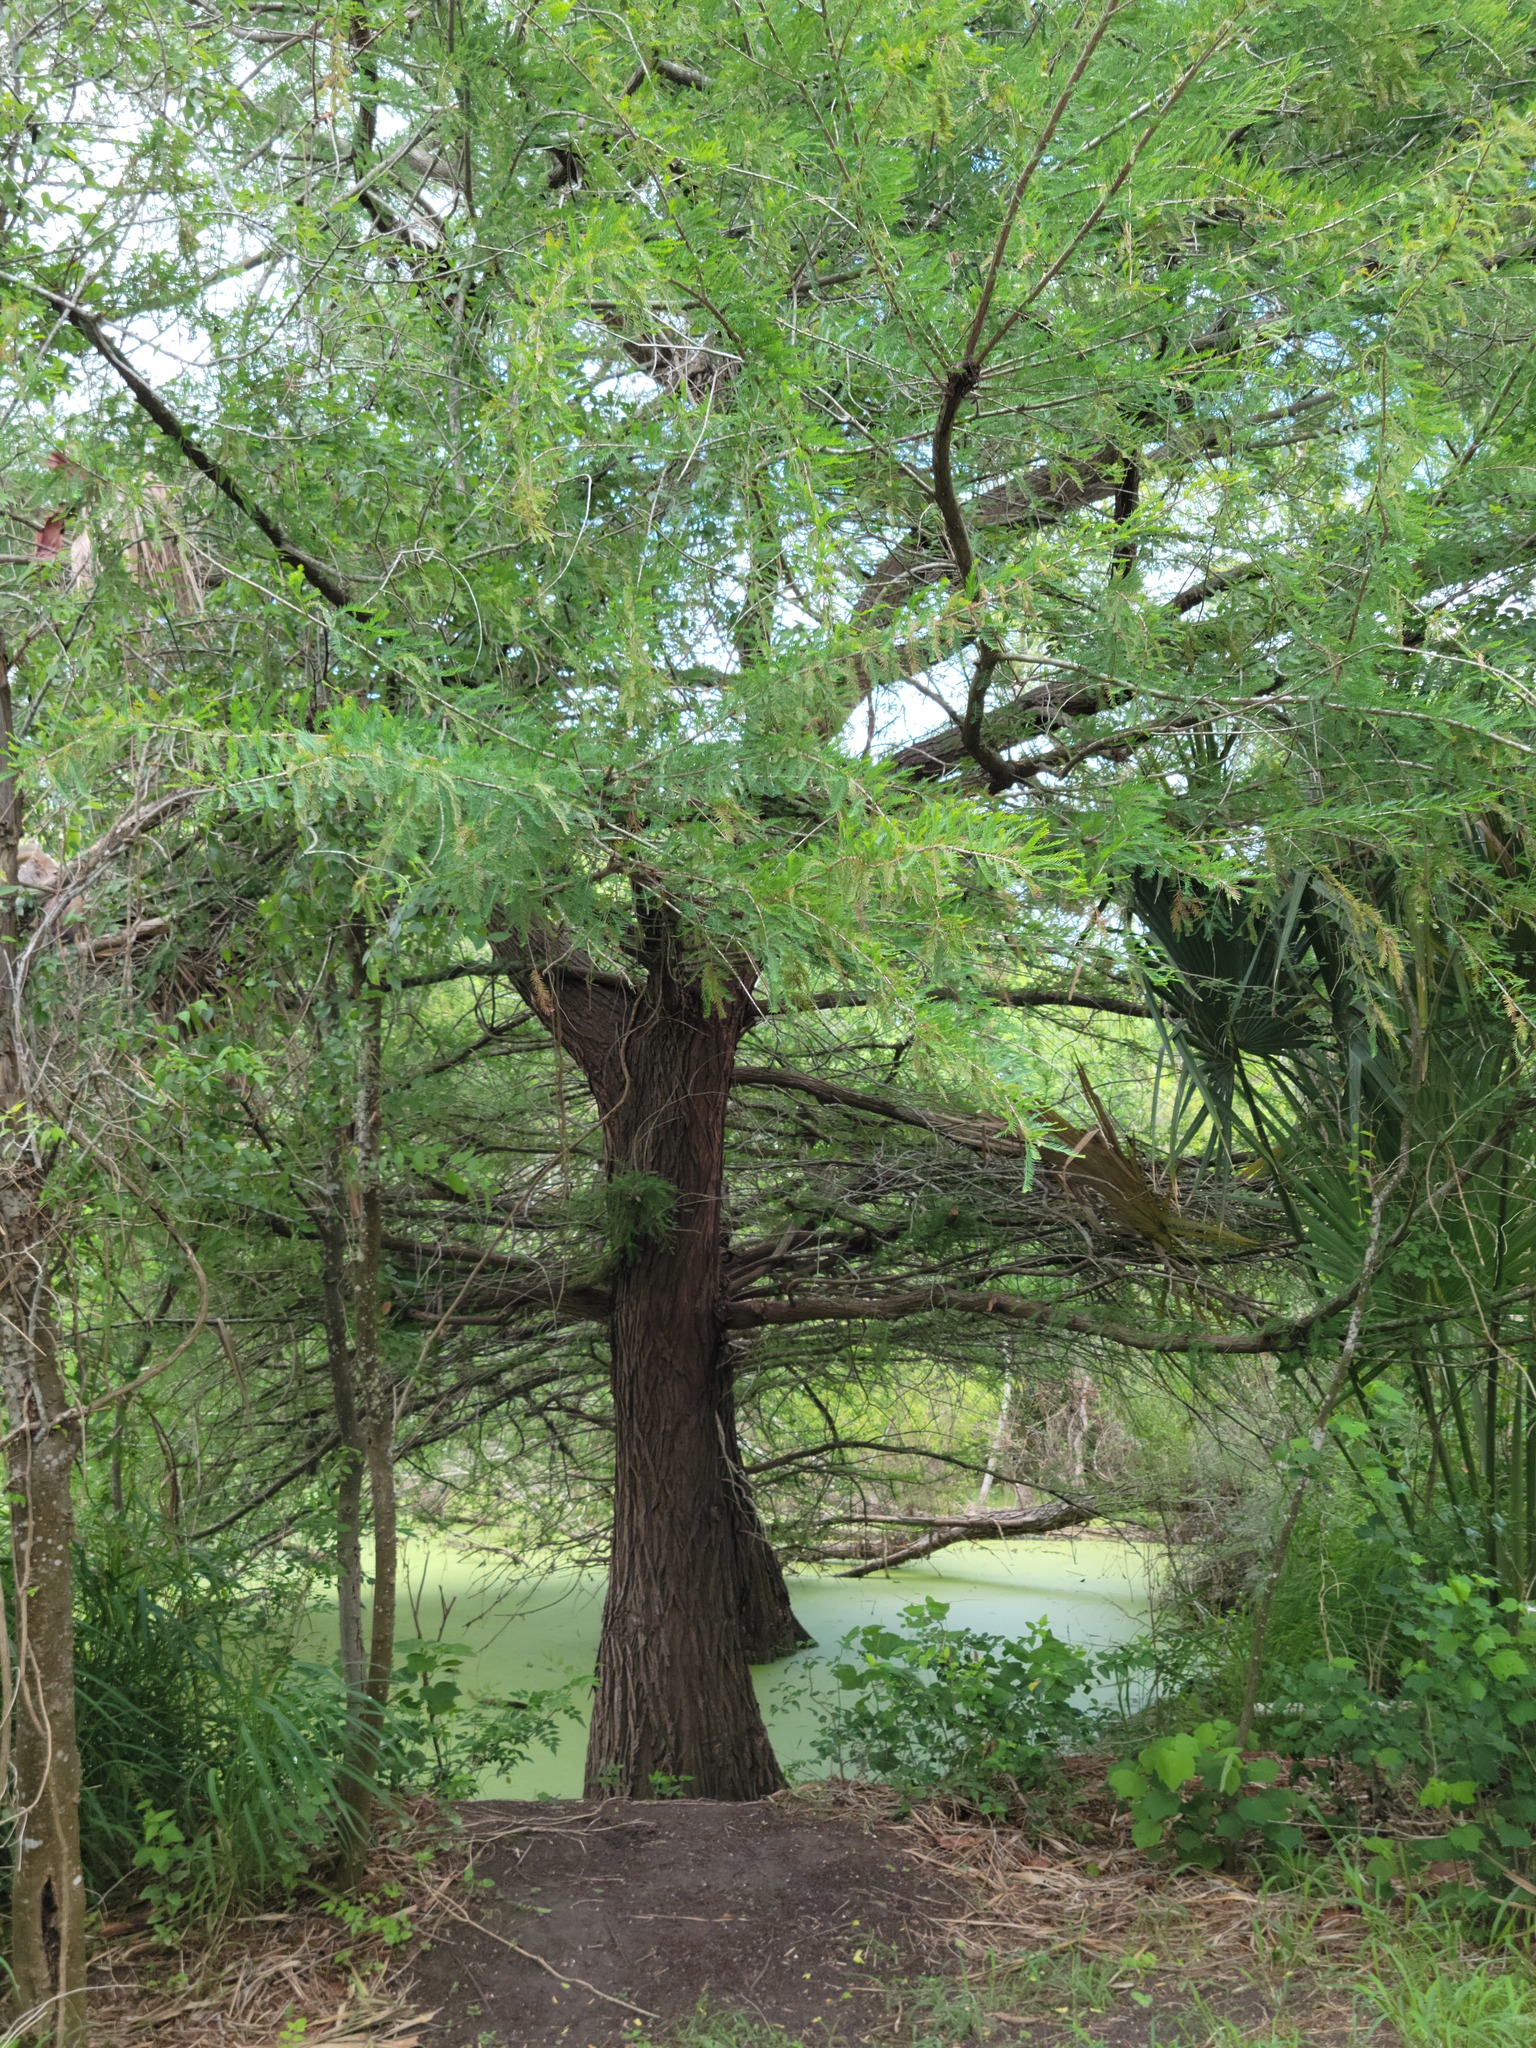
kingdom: Plantae
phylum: Tracheophyta
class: Pinopsida
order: Pinales
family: Cupressaceae
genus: Taxodium
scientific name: Taxodium mucronatum
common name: Montezume bald cypress
